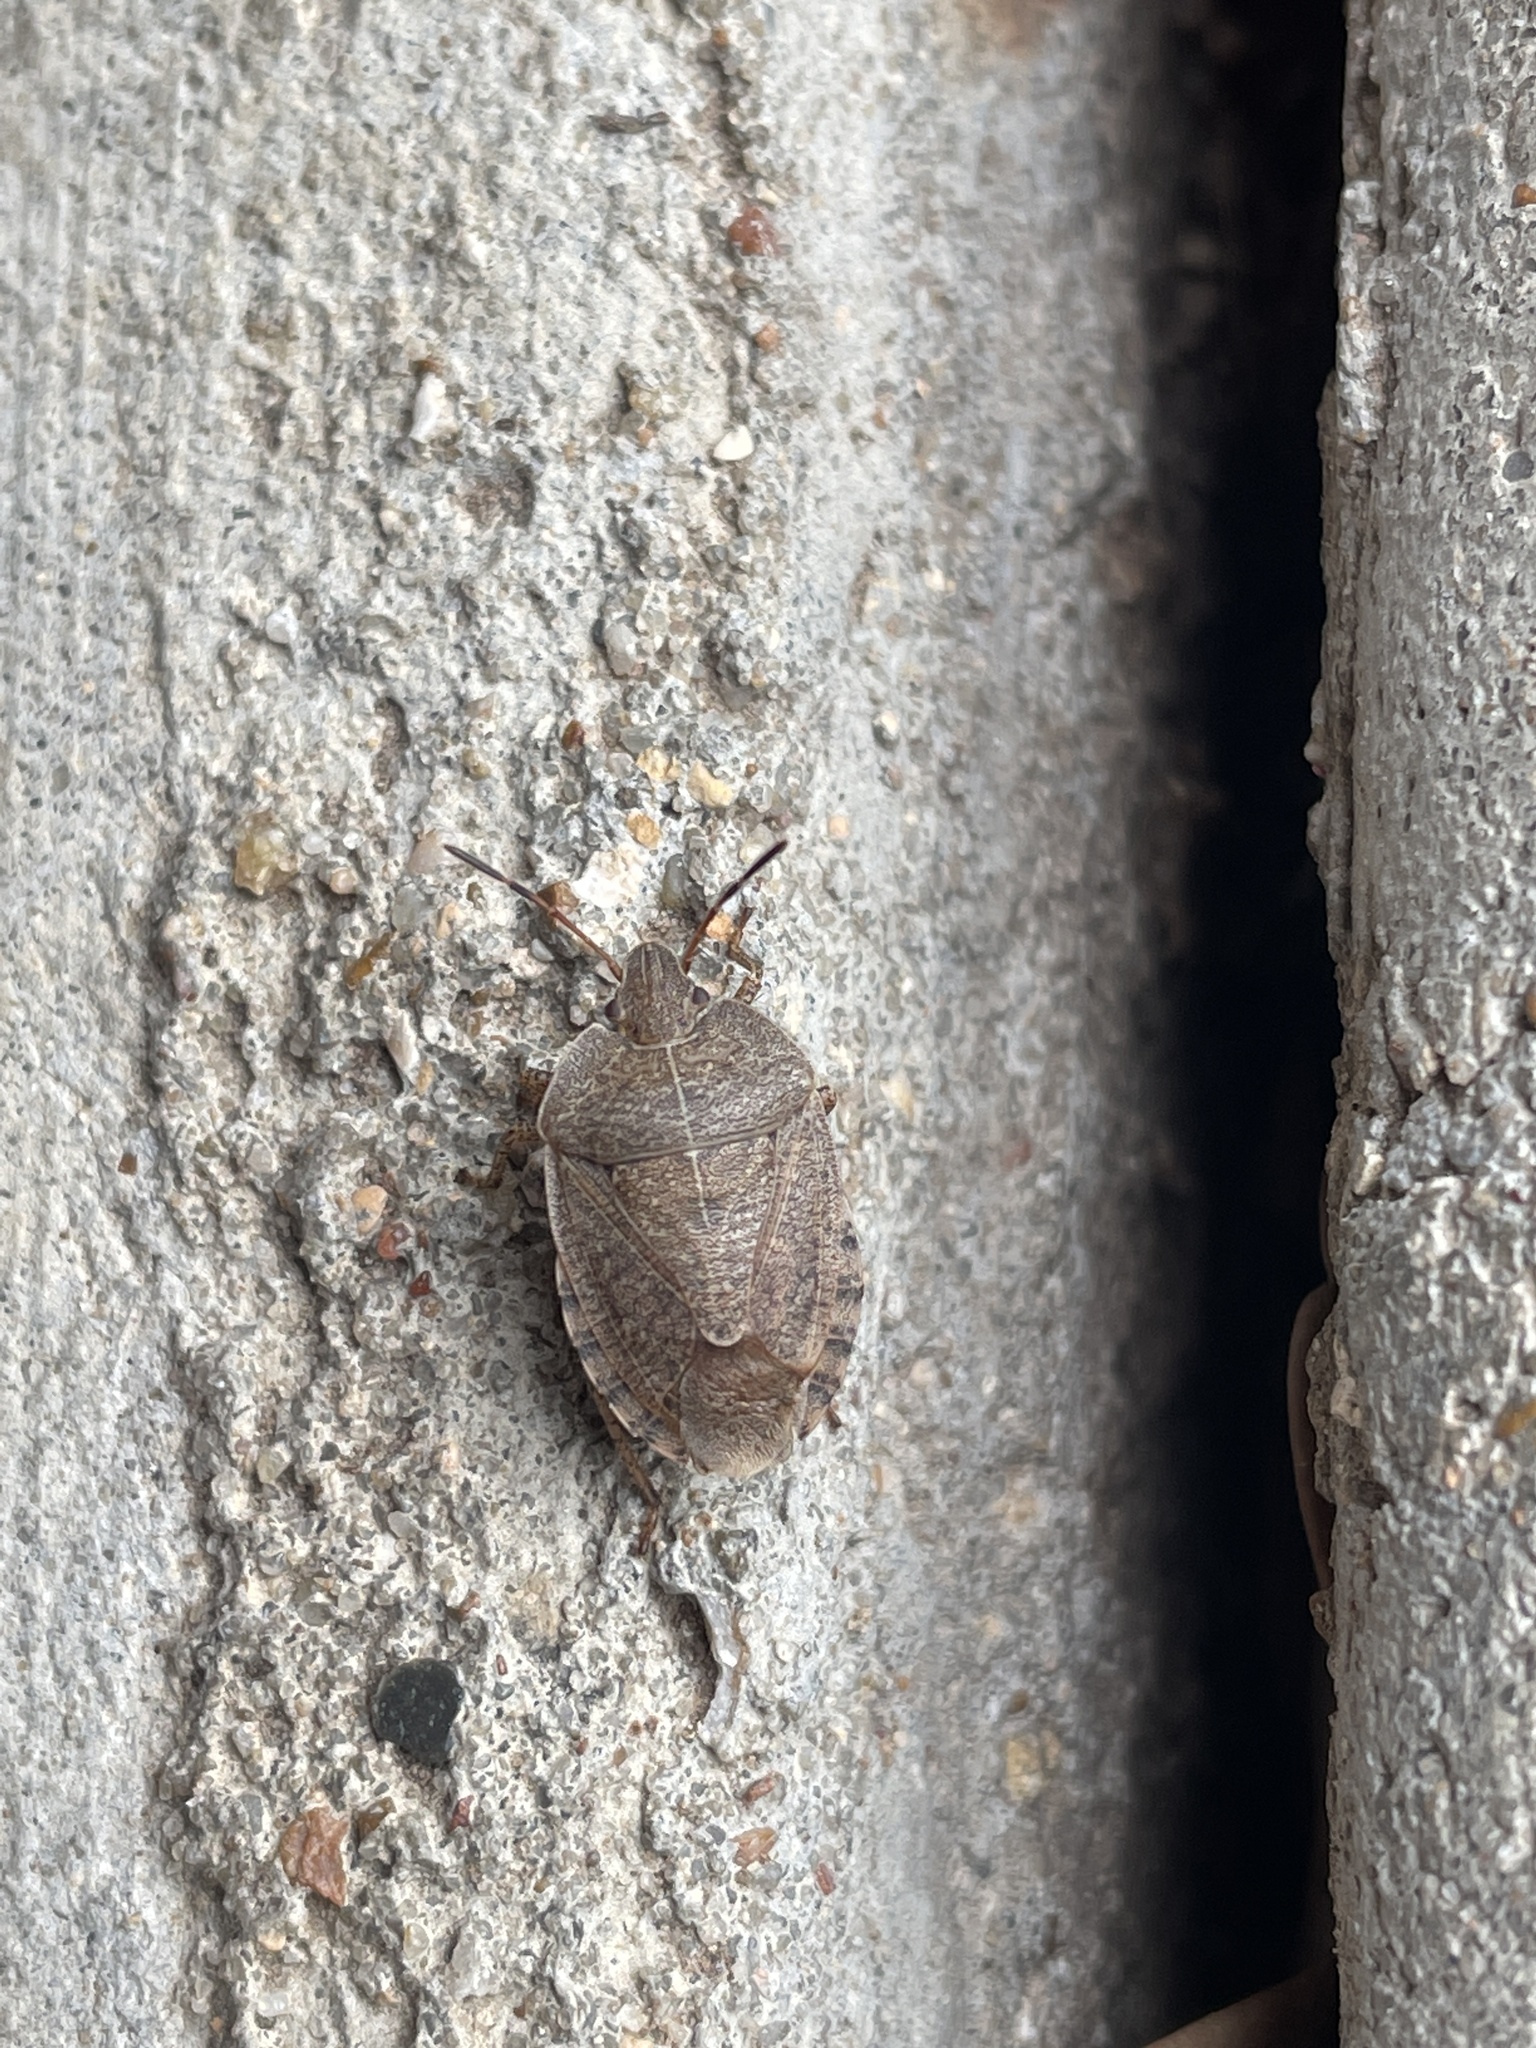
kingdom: Animalia
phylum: Arthropoda
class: Insecta
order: Hemiptera
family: Pentatomidae
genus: Menecles
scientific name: Menecles insertus
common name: Elf shoe stink bug
